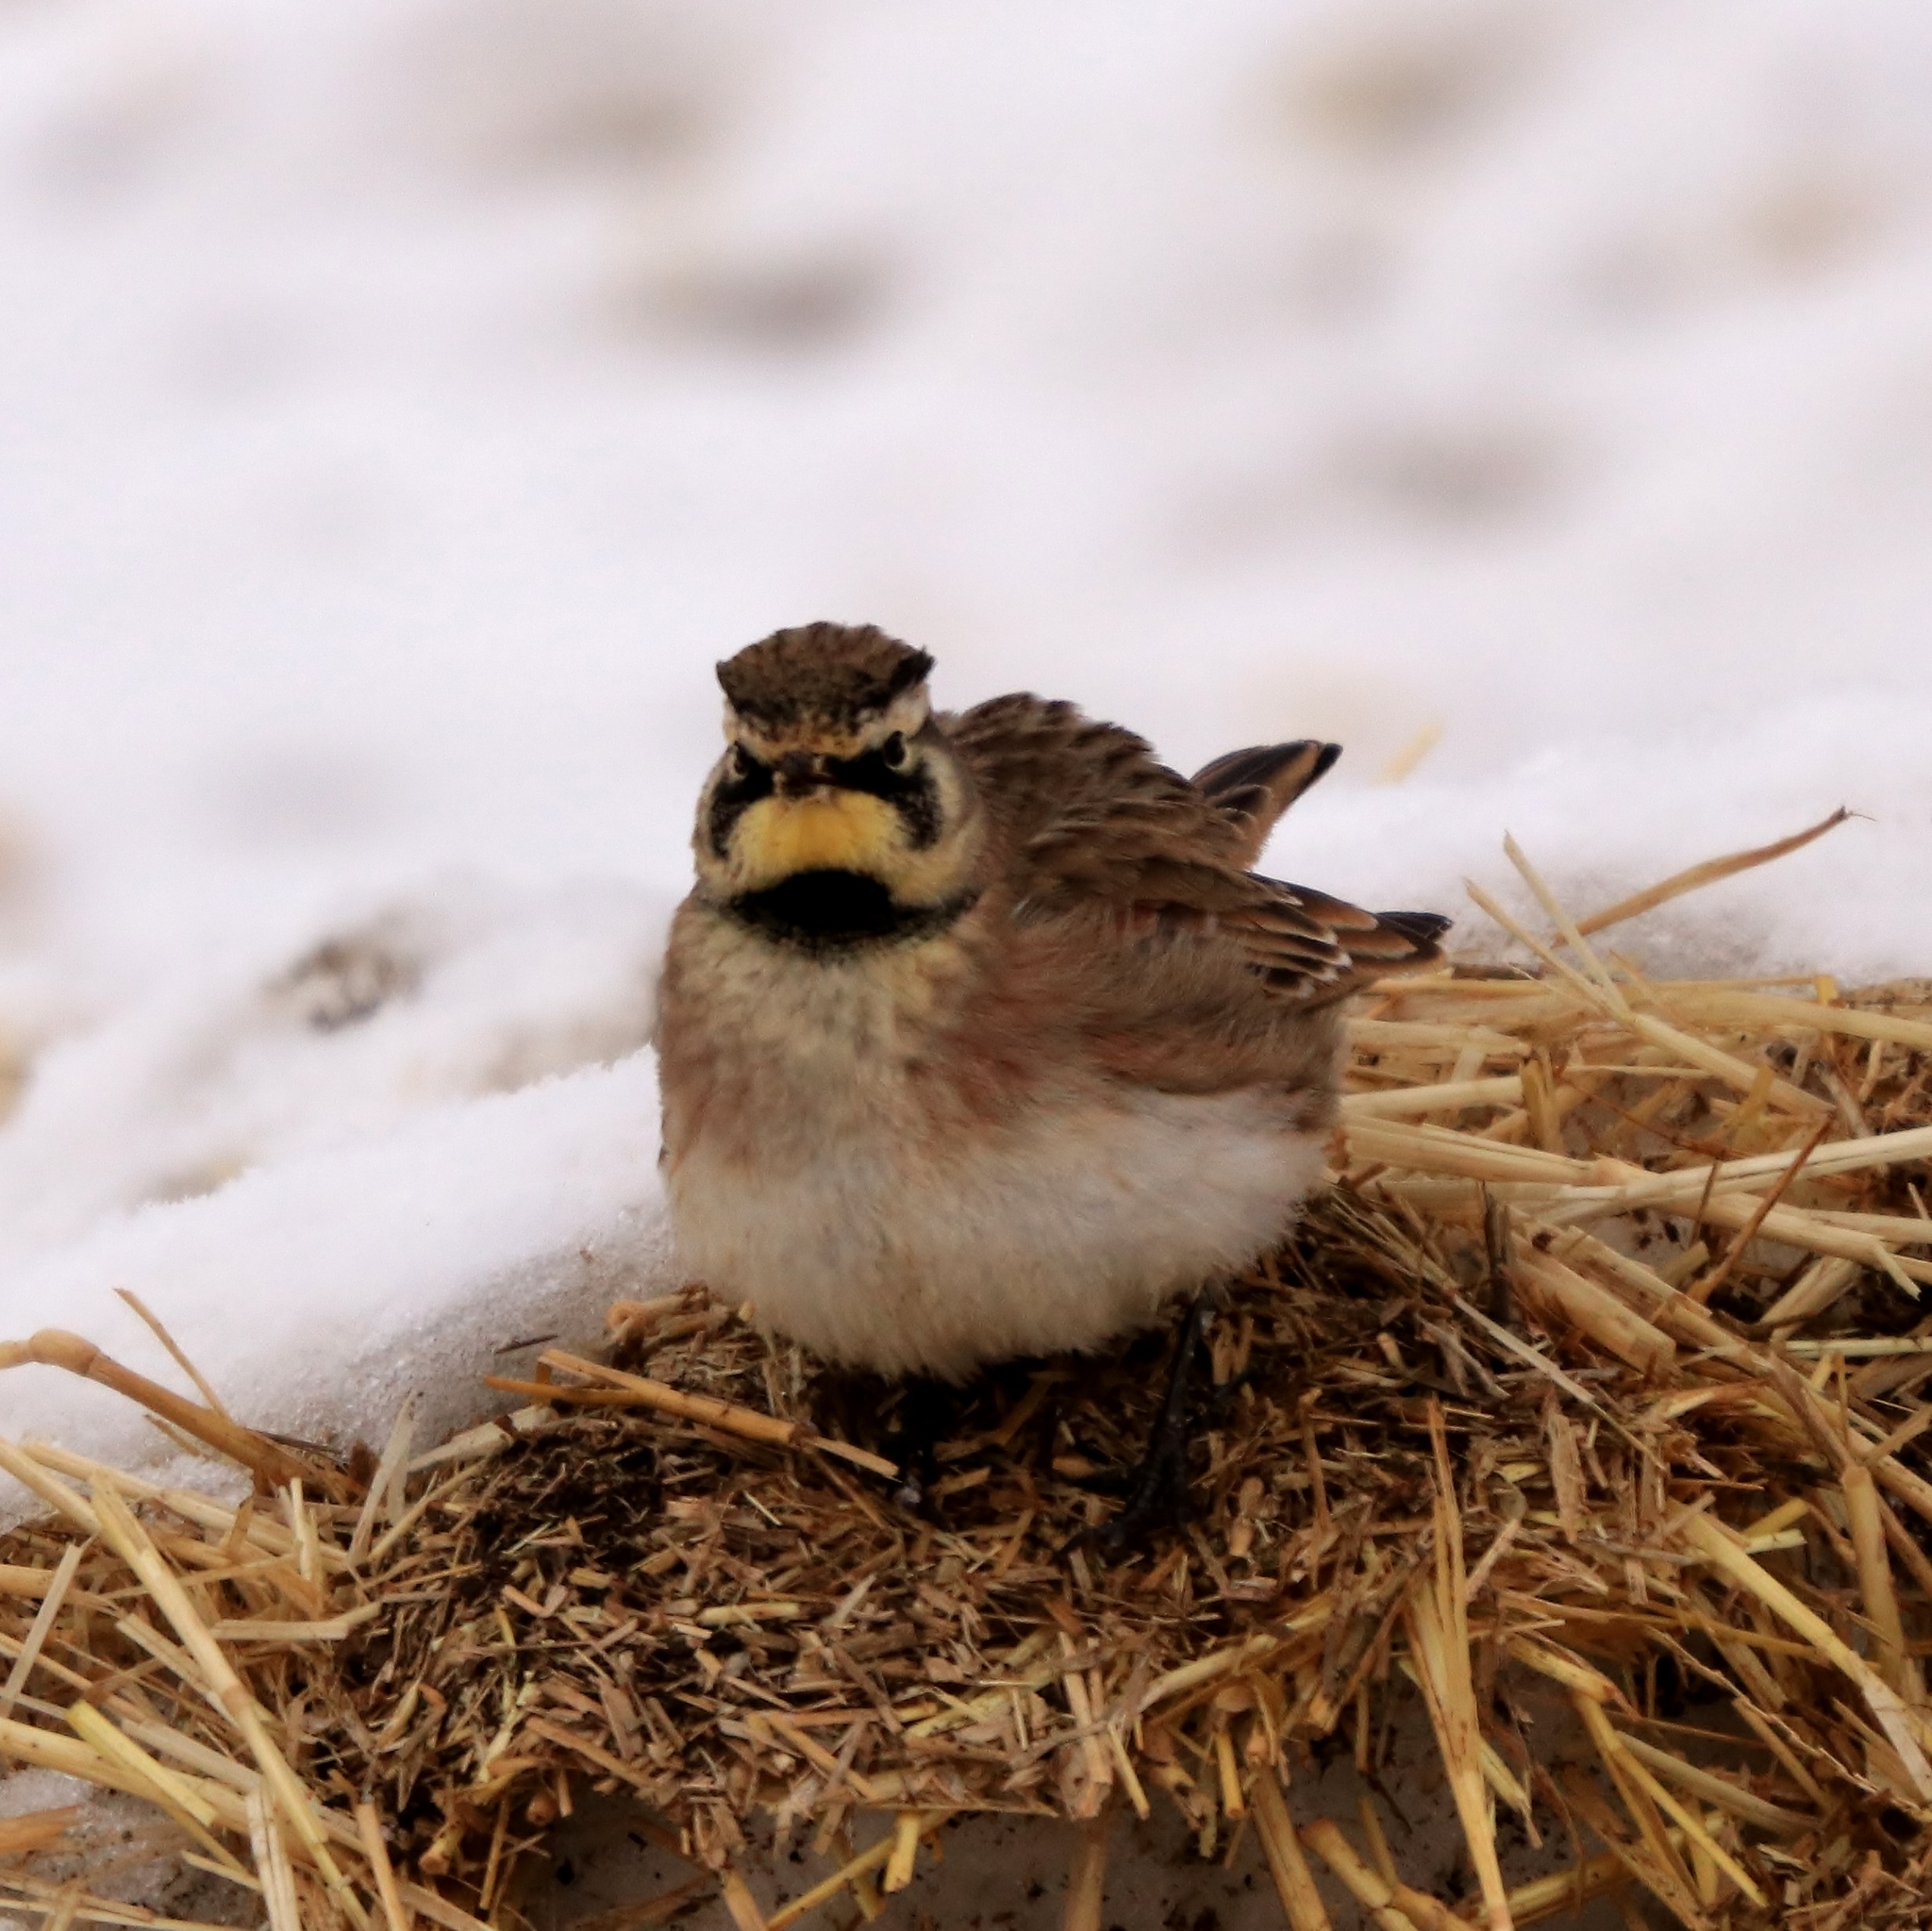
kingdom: Animalia
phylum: Chordata
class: Aves
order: Passeriformes
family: Alaudidae
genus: Eremophila
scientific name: Eremophila alpestris
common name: Horned lark
